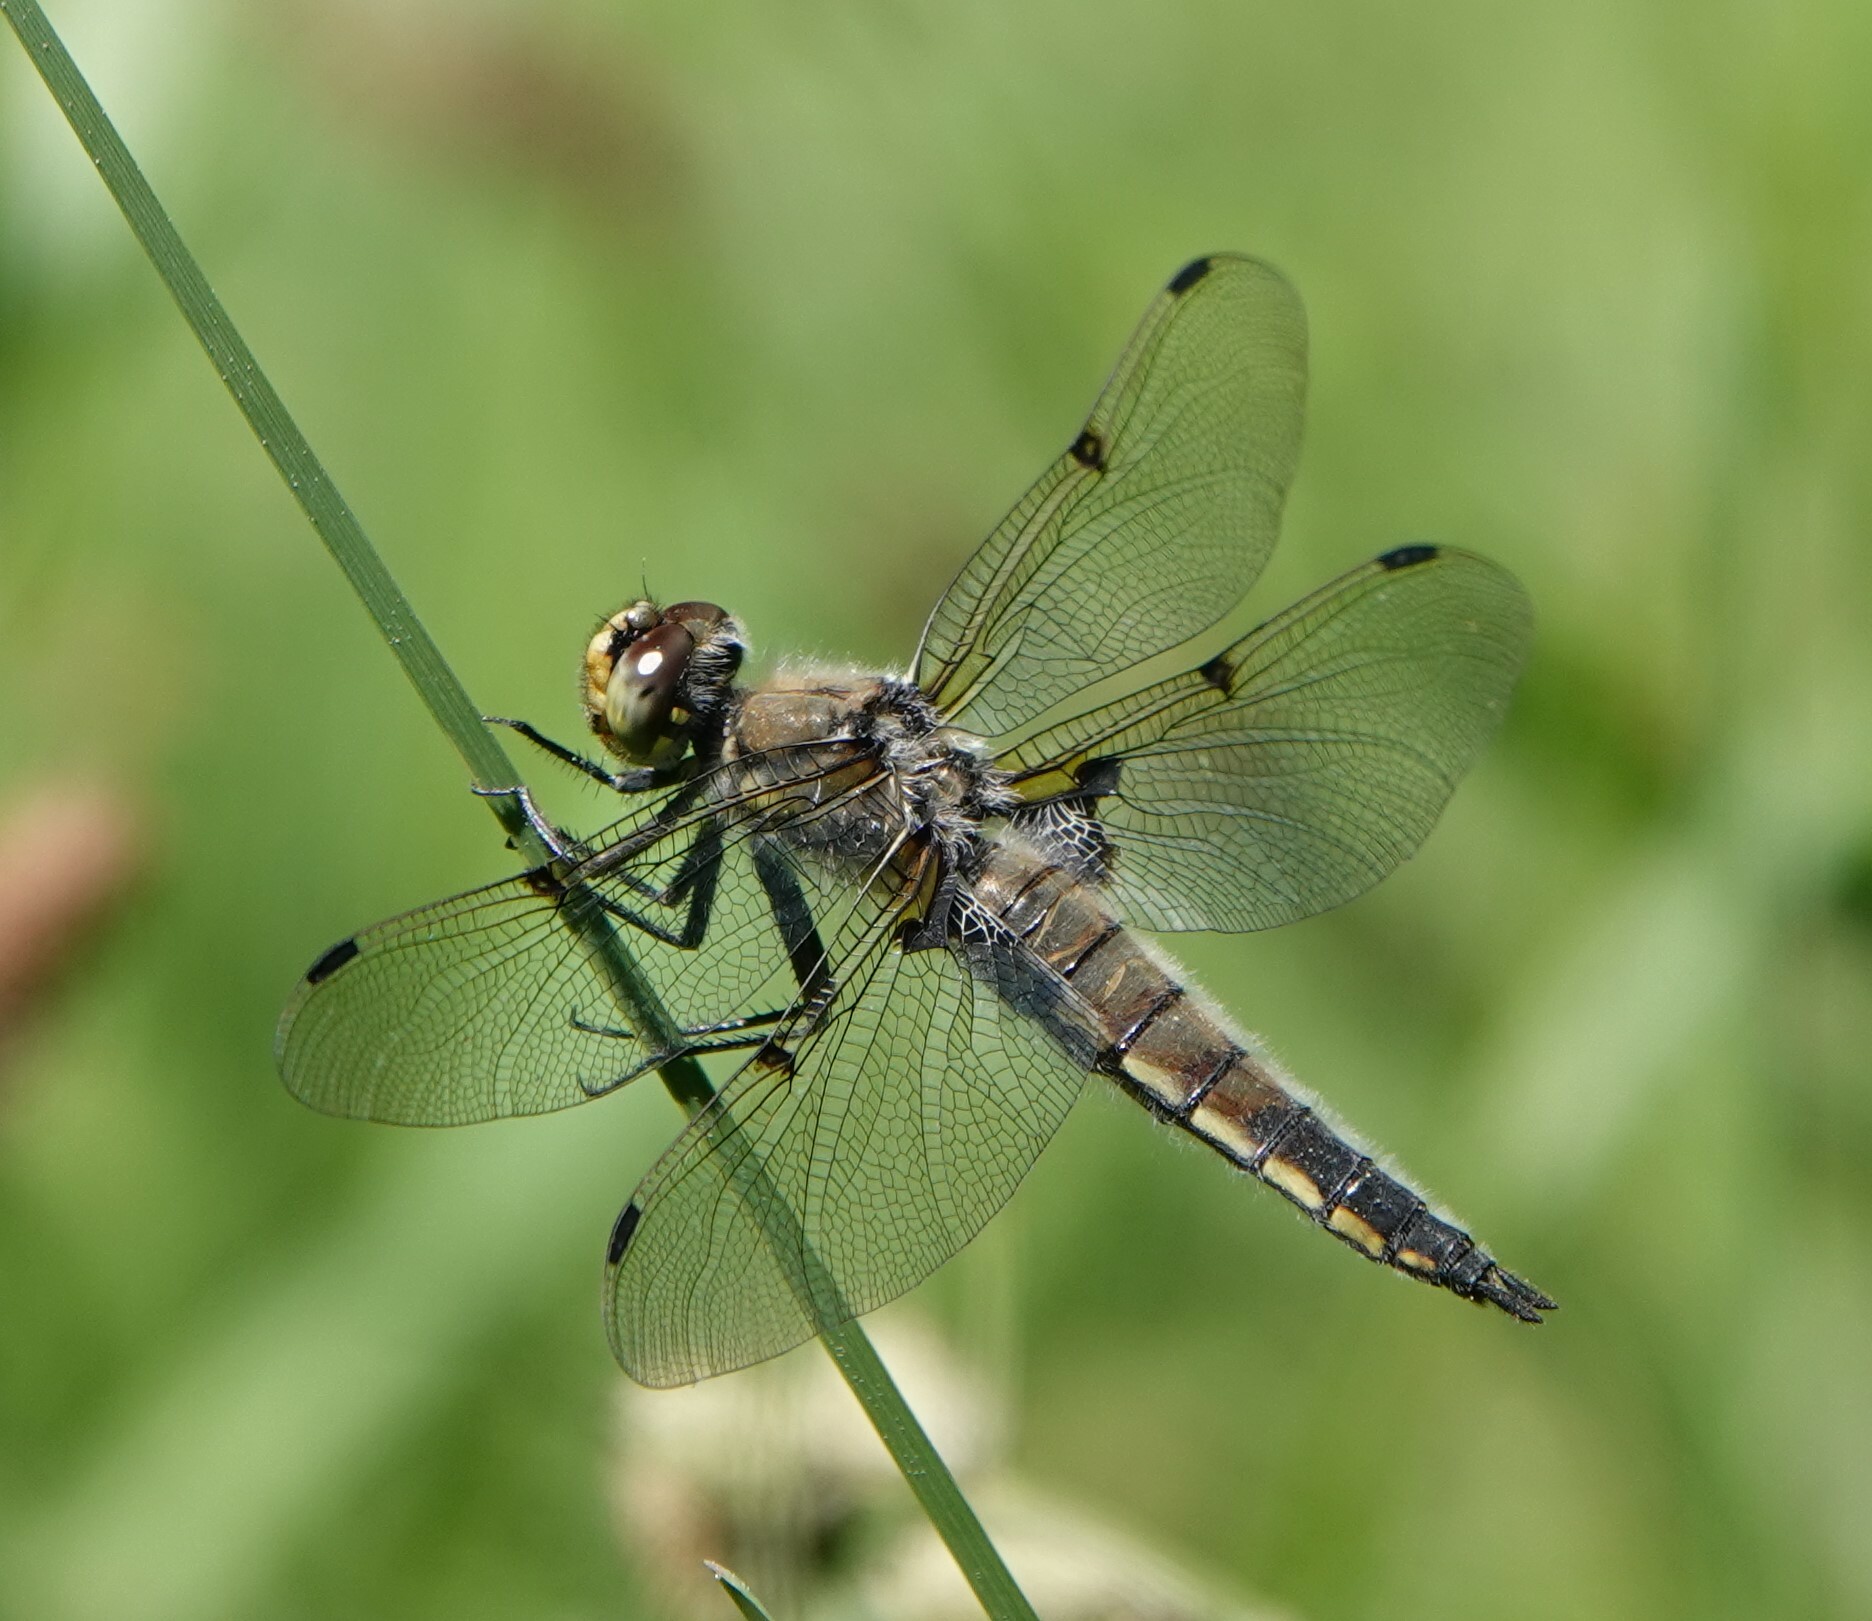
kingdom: Animalia
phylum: Arthropoda
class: Insecta
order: Odonata
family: Libellulidae
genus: Libellula
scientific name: Libellula quadrimaculata
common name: Four-spotted chaser
